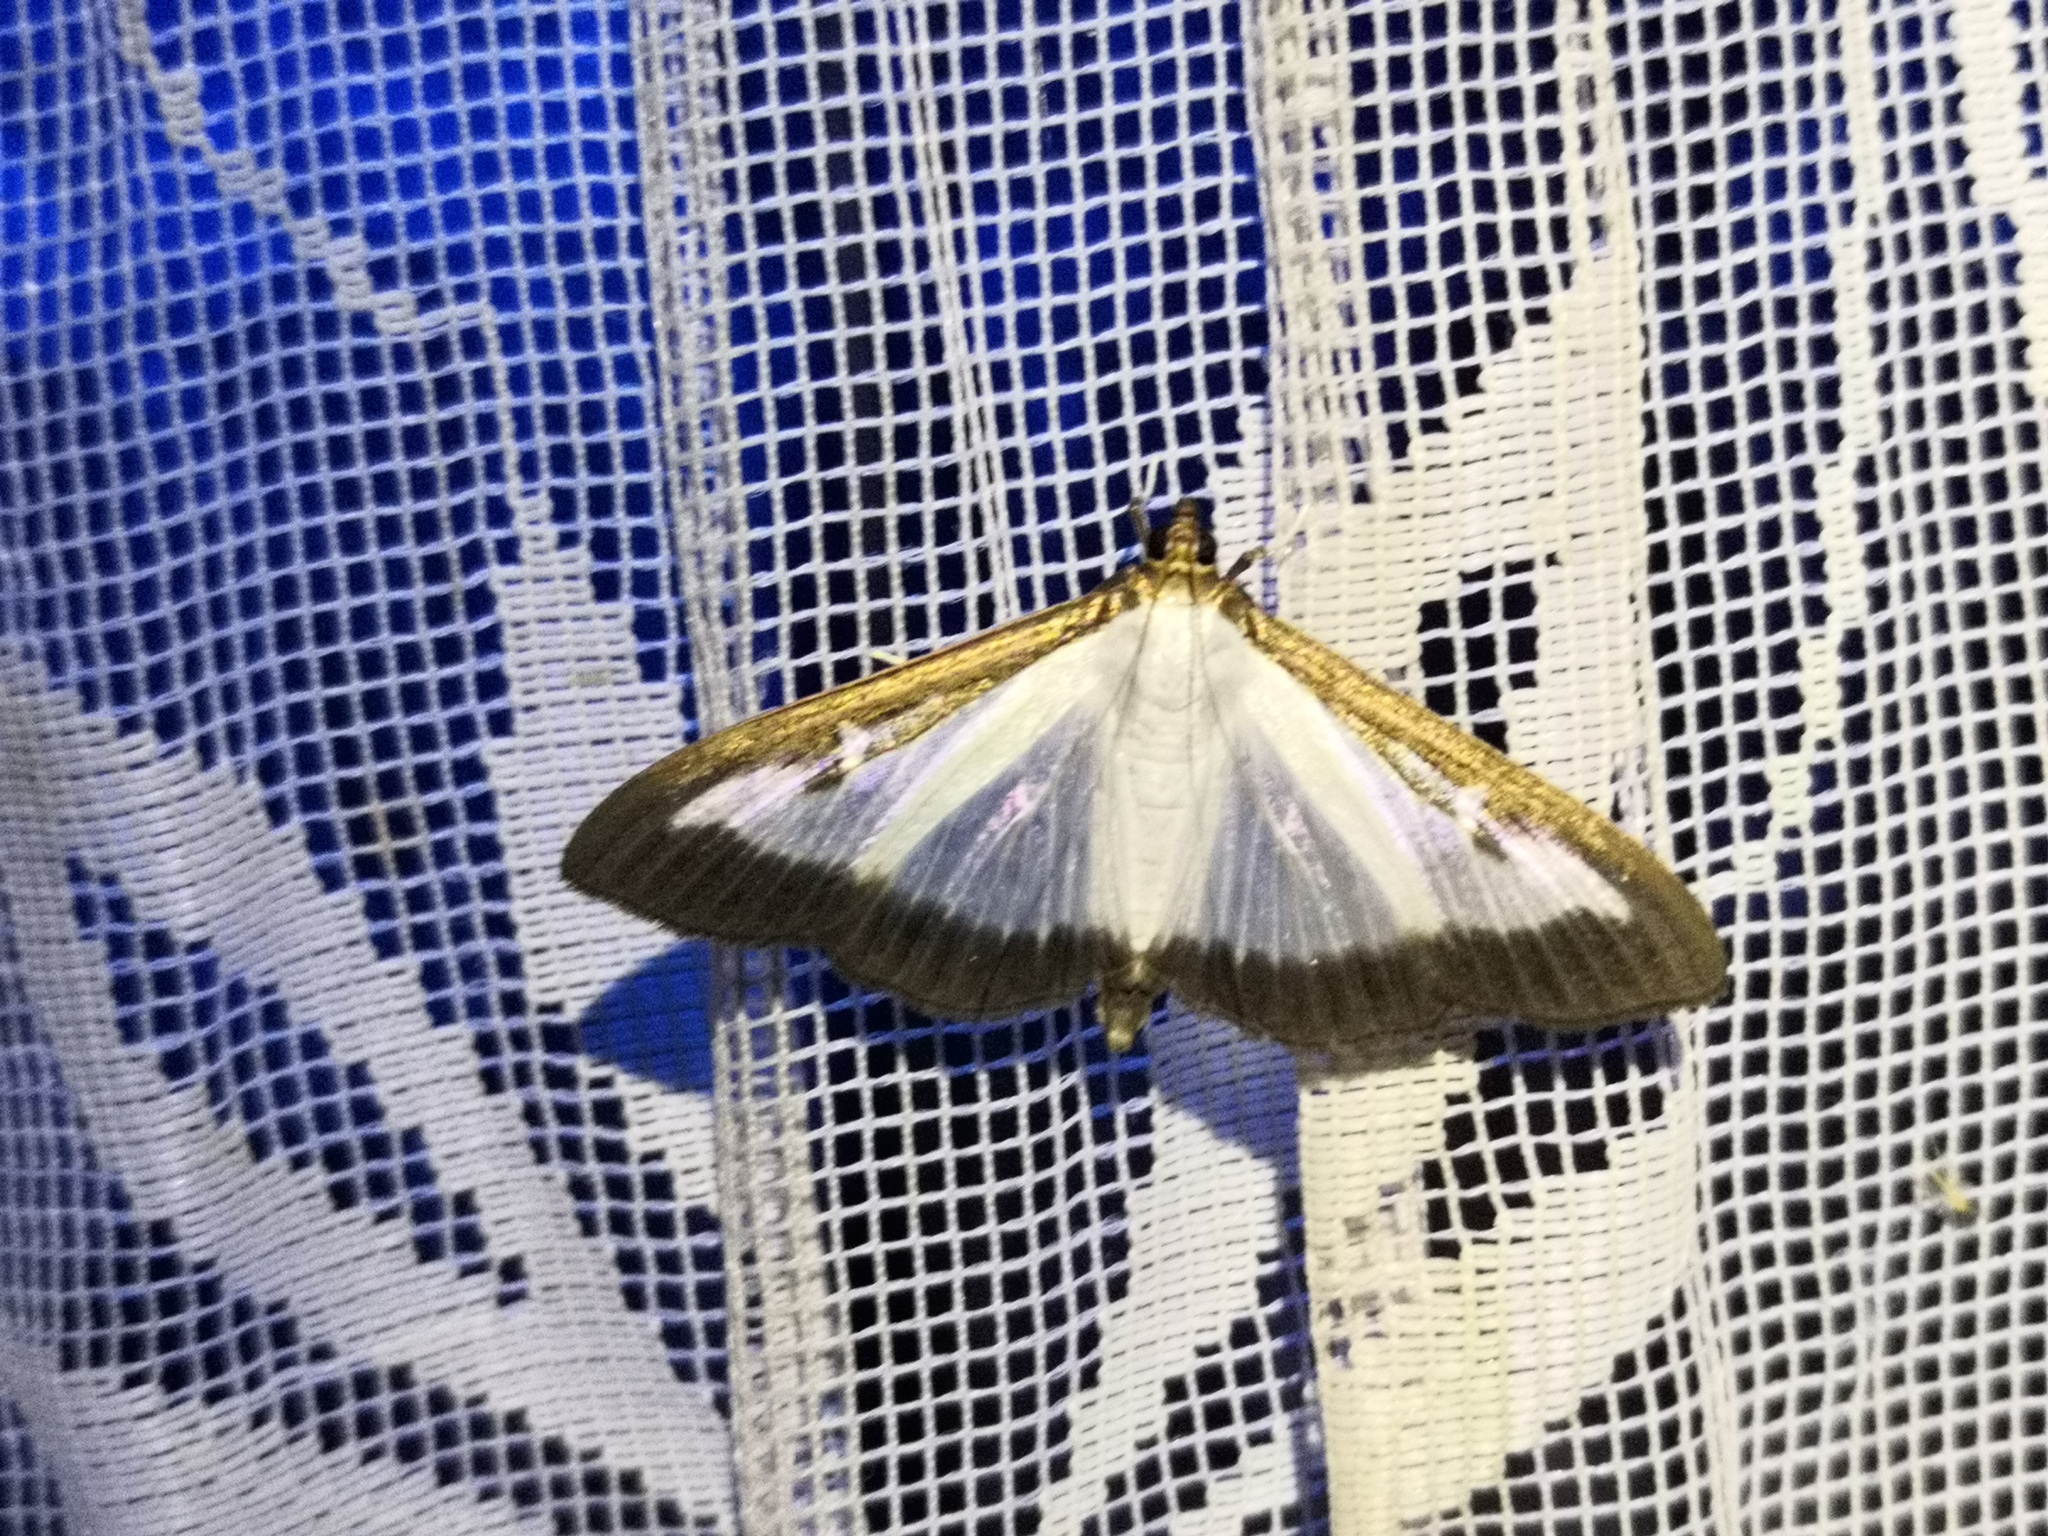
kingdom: Animalia
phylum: Arthropoda
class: Insecta
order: Lepidoptera
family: Crambidae
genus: Cydalima
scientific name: Cydalima perspectalis
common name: Box tree moth
